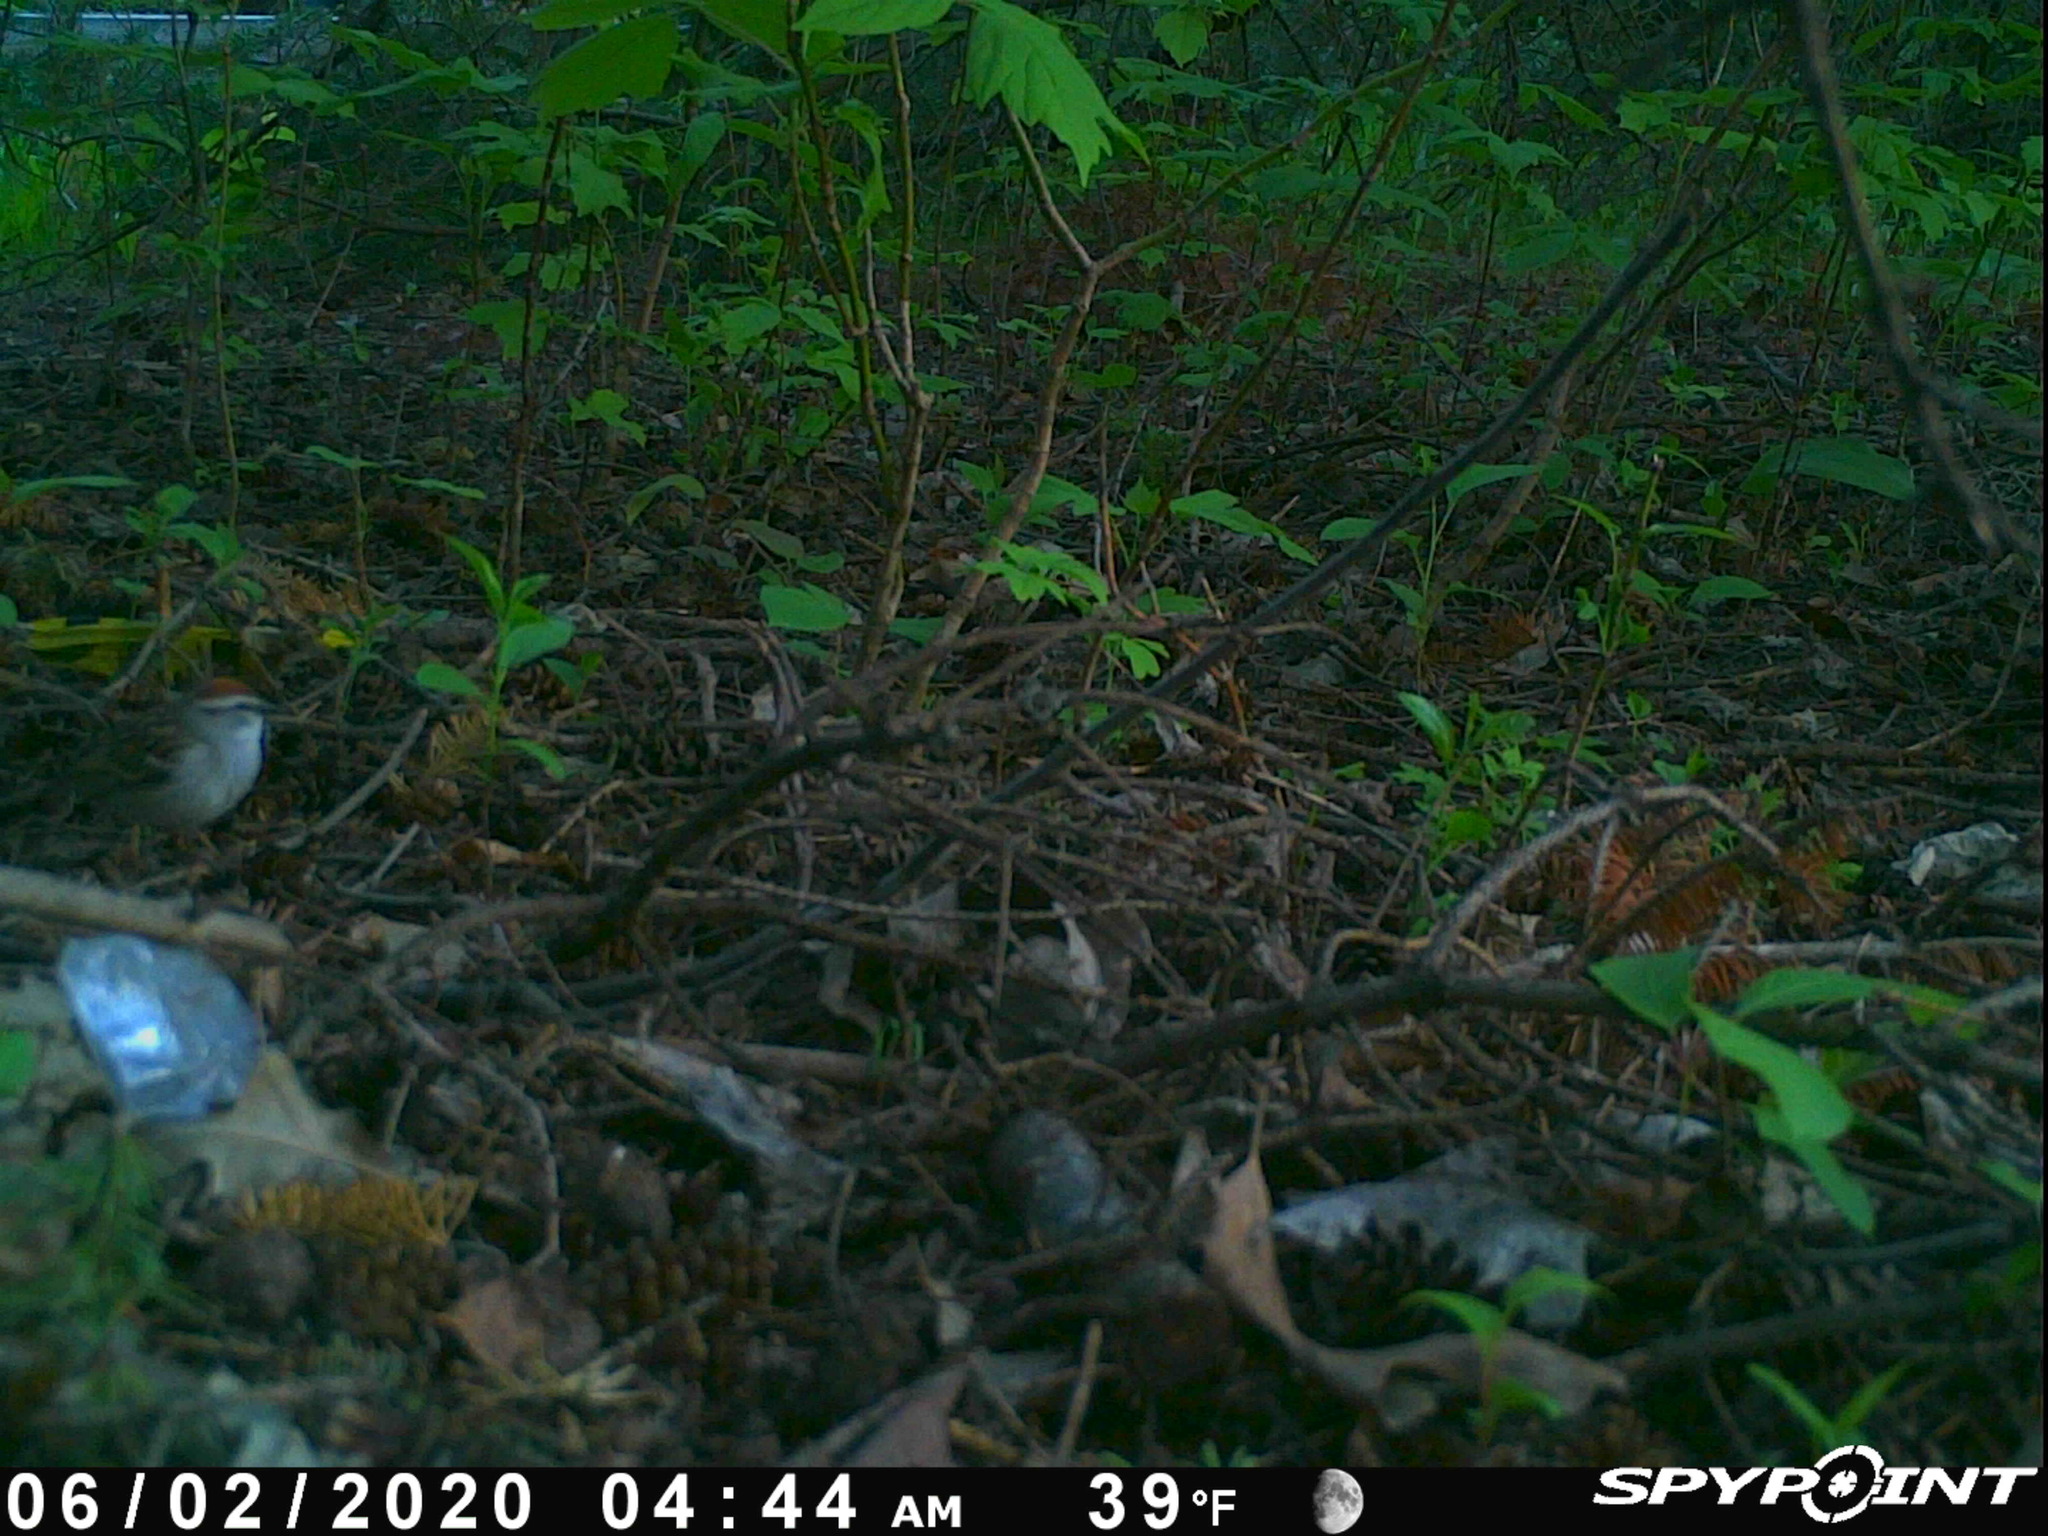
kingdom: Animalia
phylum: Chordata
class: Aves
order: Passeriformes
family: Passerellidae
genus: Spizella
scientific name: Spizella passerina
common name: Chipping sparrow
